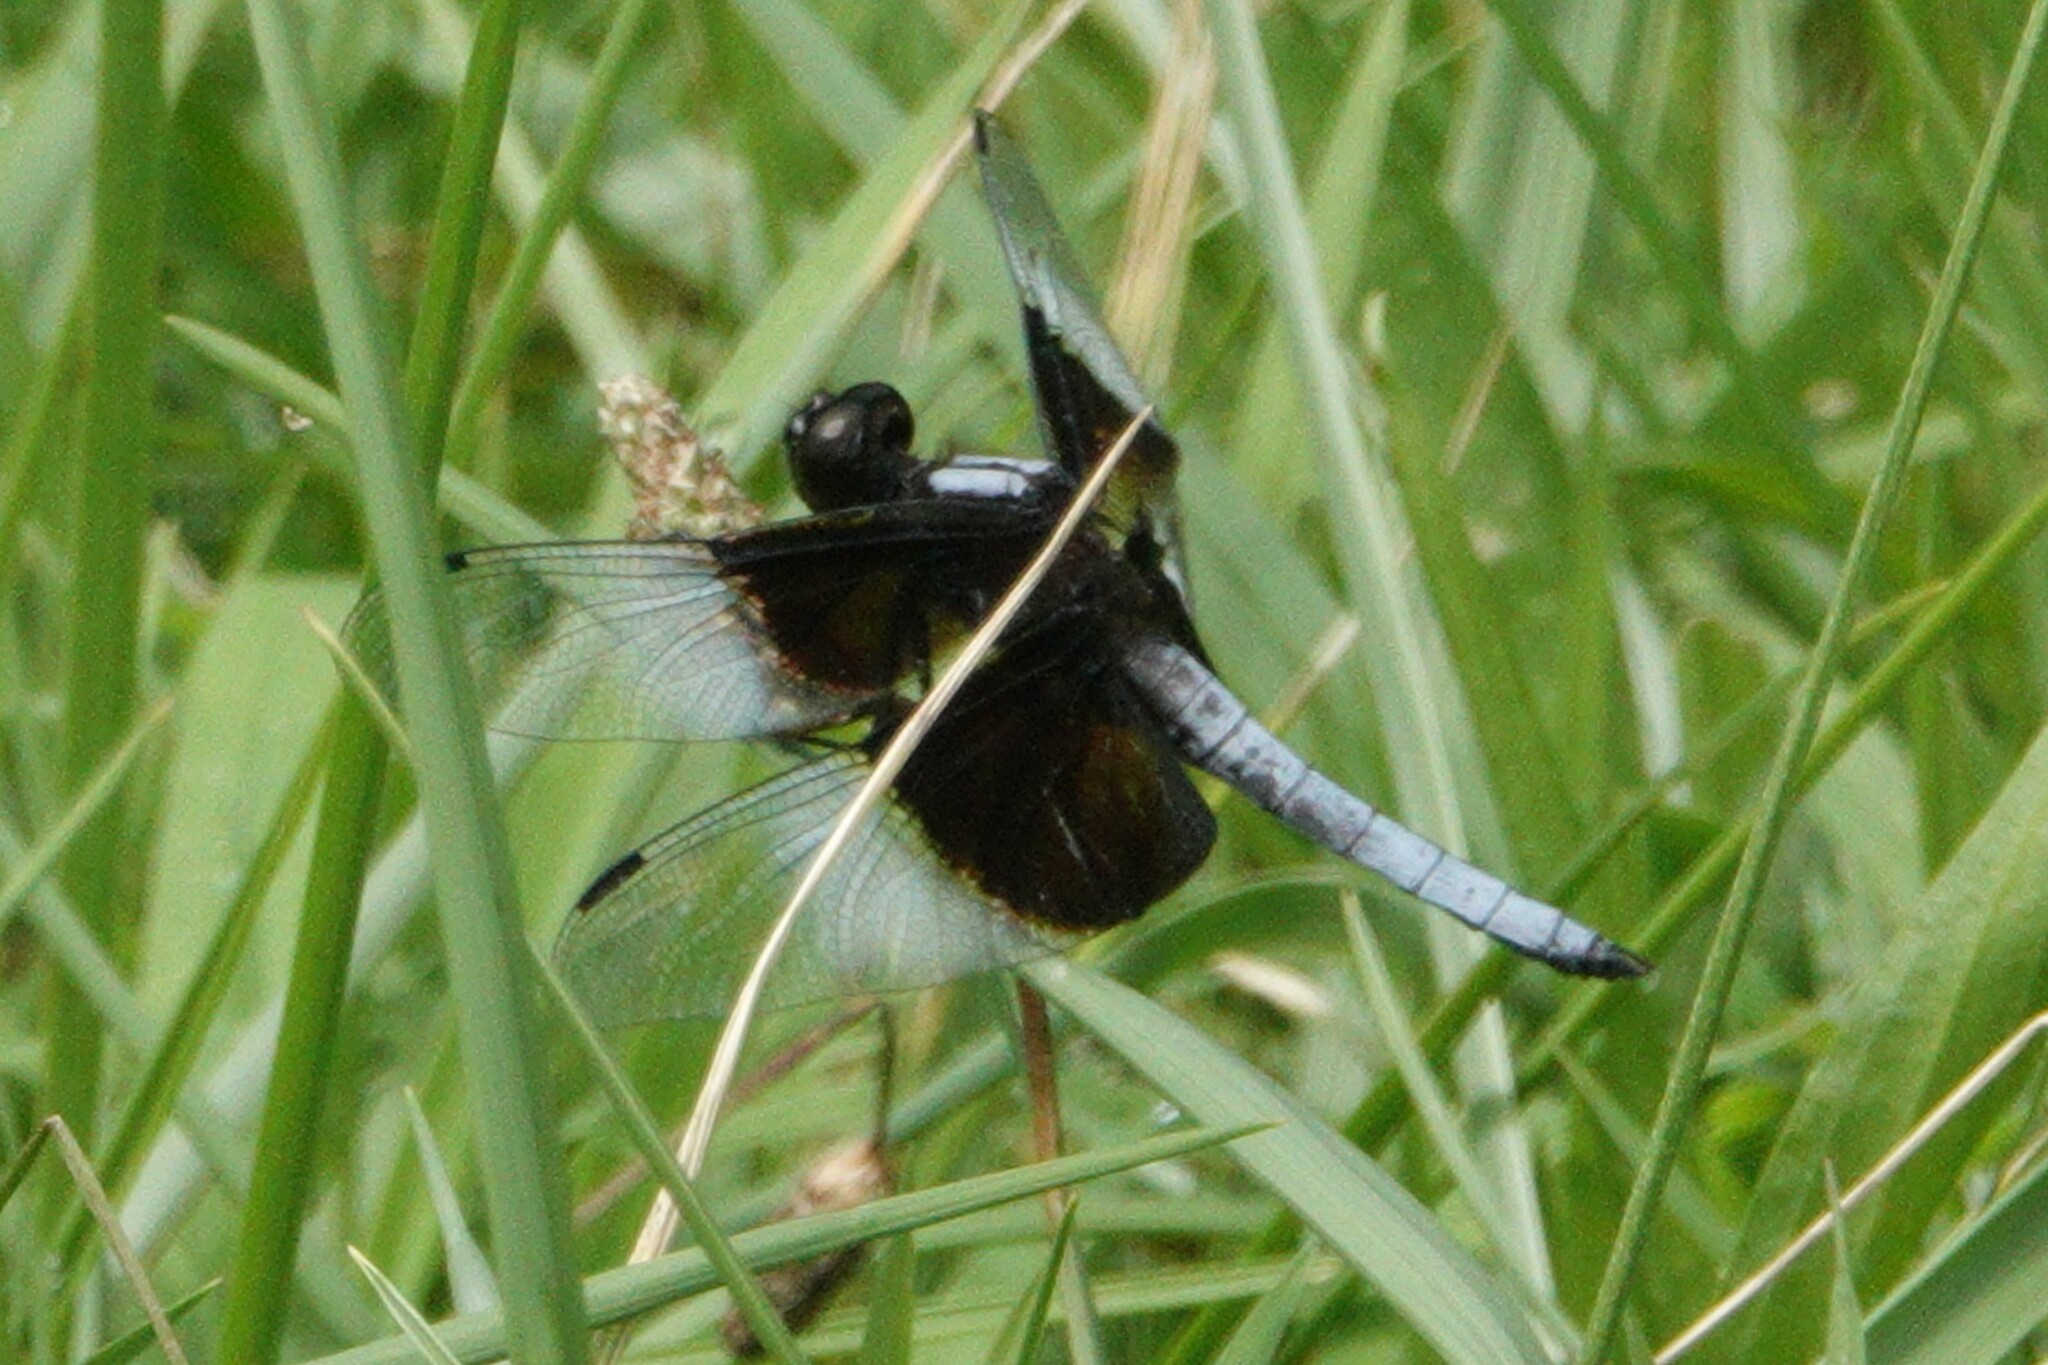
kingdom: Animalia
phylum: Arthropoda
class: Insecta
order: Odonata
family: Libellulidae
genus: Libellula
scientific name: Libellula luctuosa
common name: Widow skimmer
